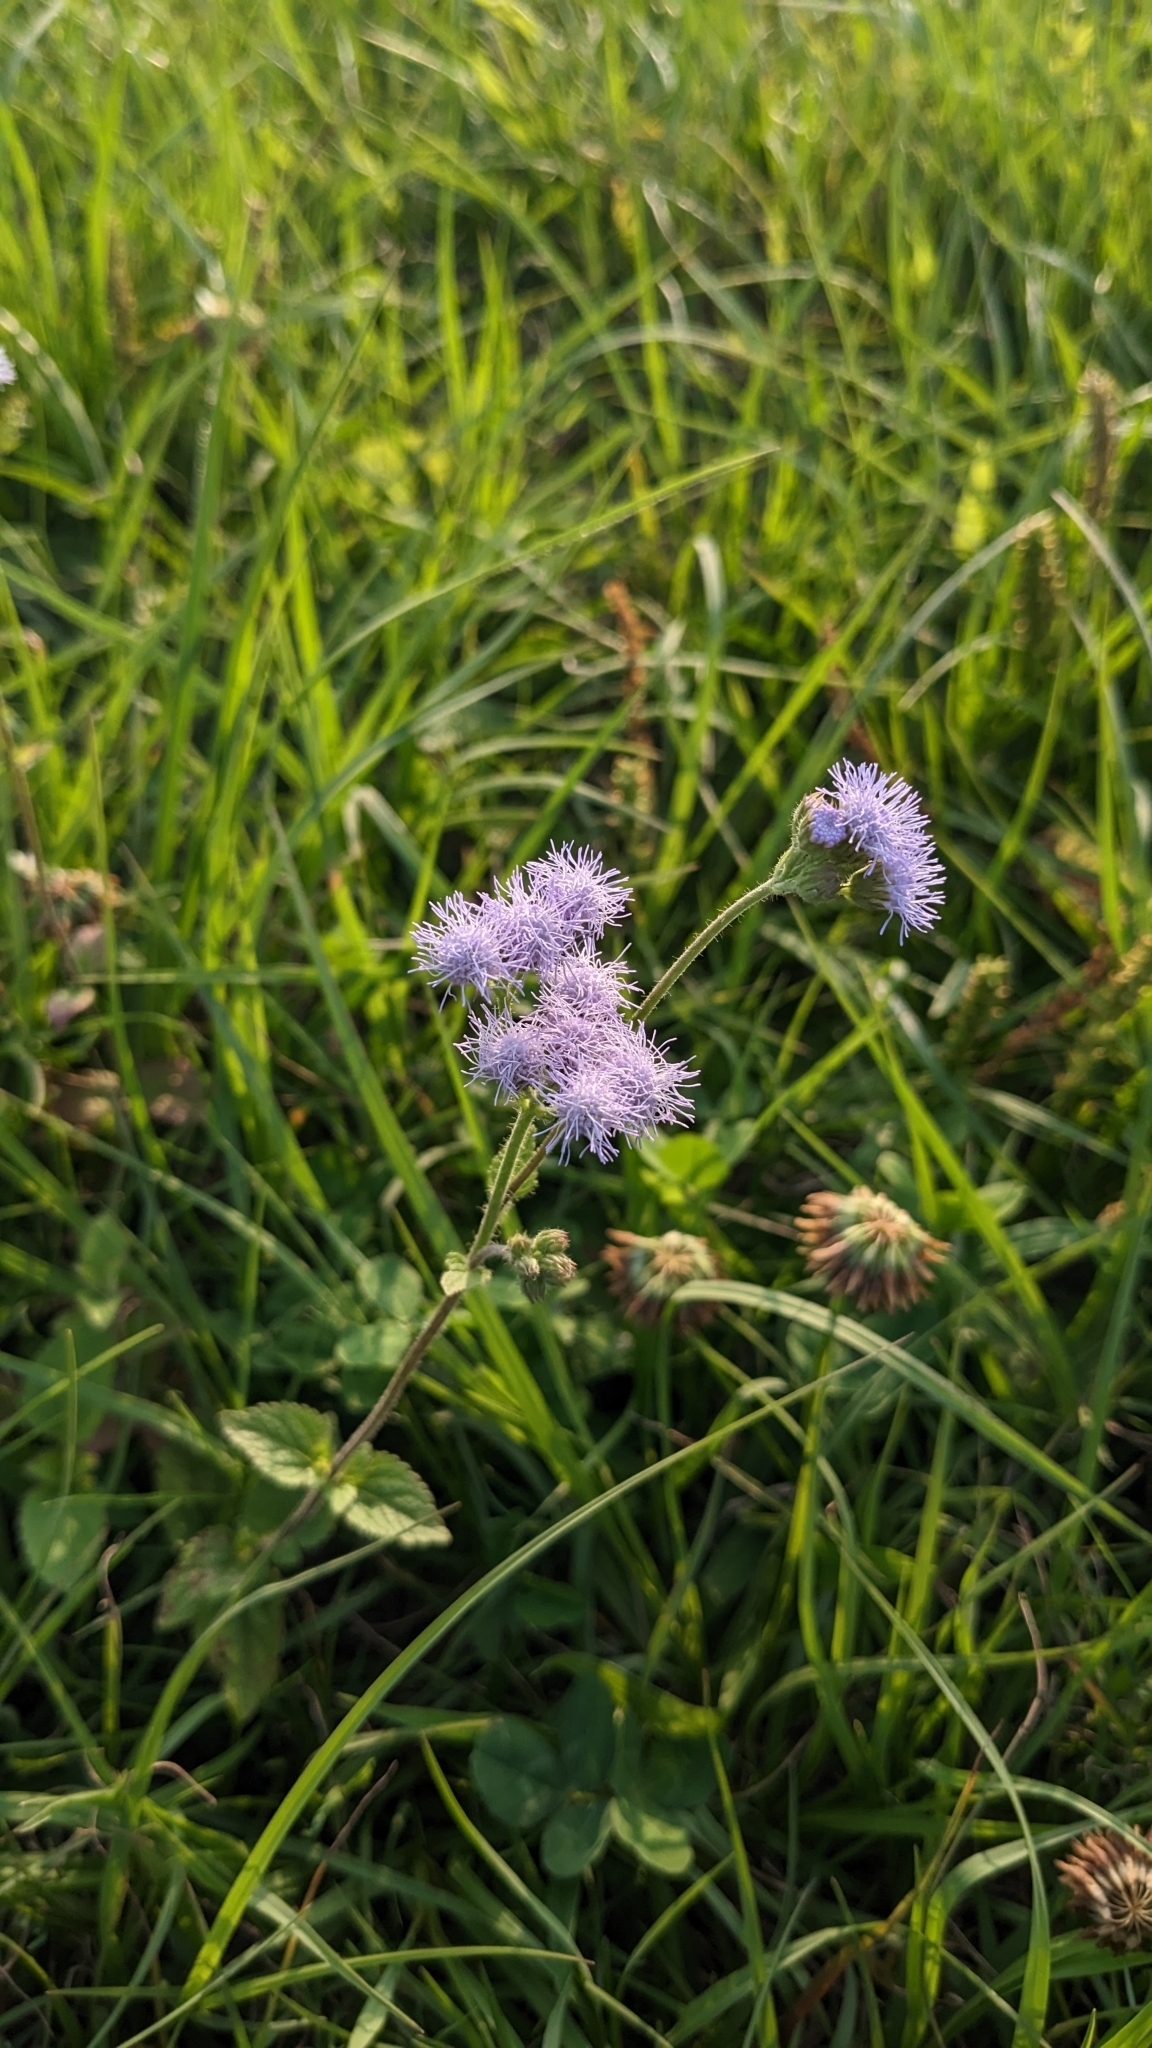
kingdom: Plantae
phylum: Tracheophyta
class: Magnoliopsida
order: Asterales
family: Asteraceae
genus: Ageratum
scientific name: Ageratum houstonianum
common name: Bluemink
